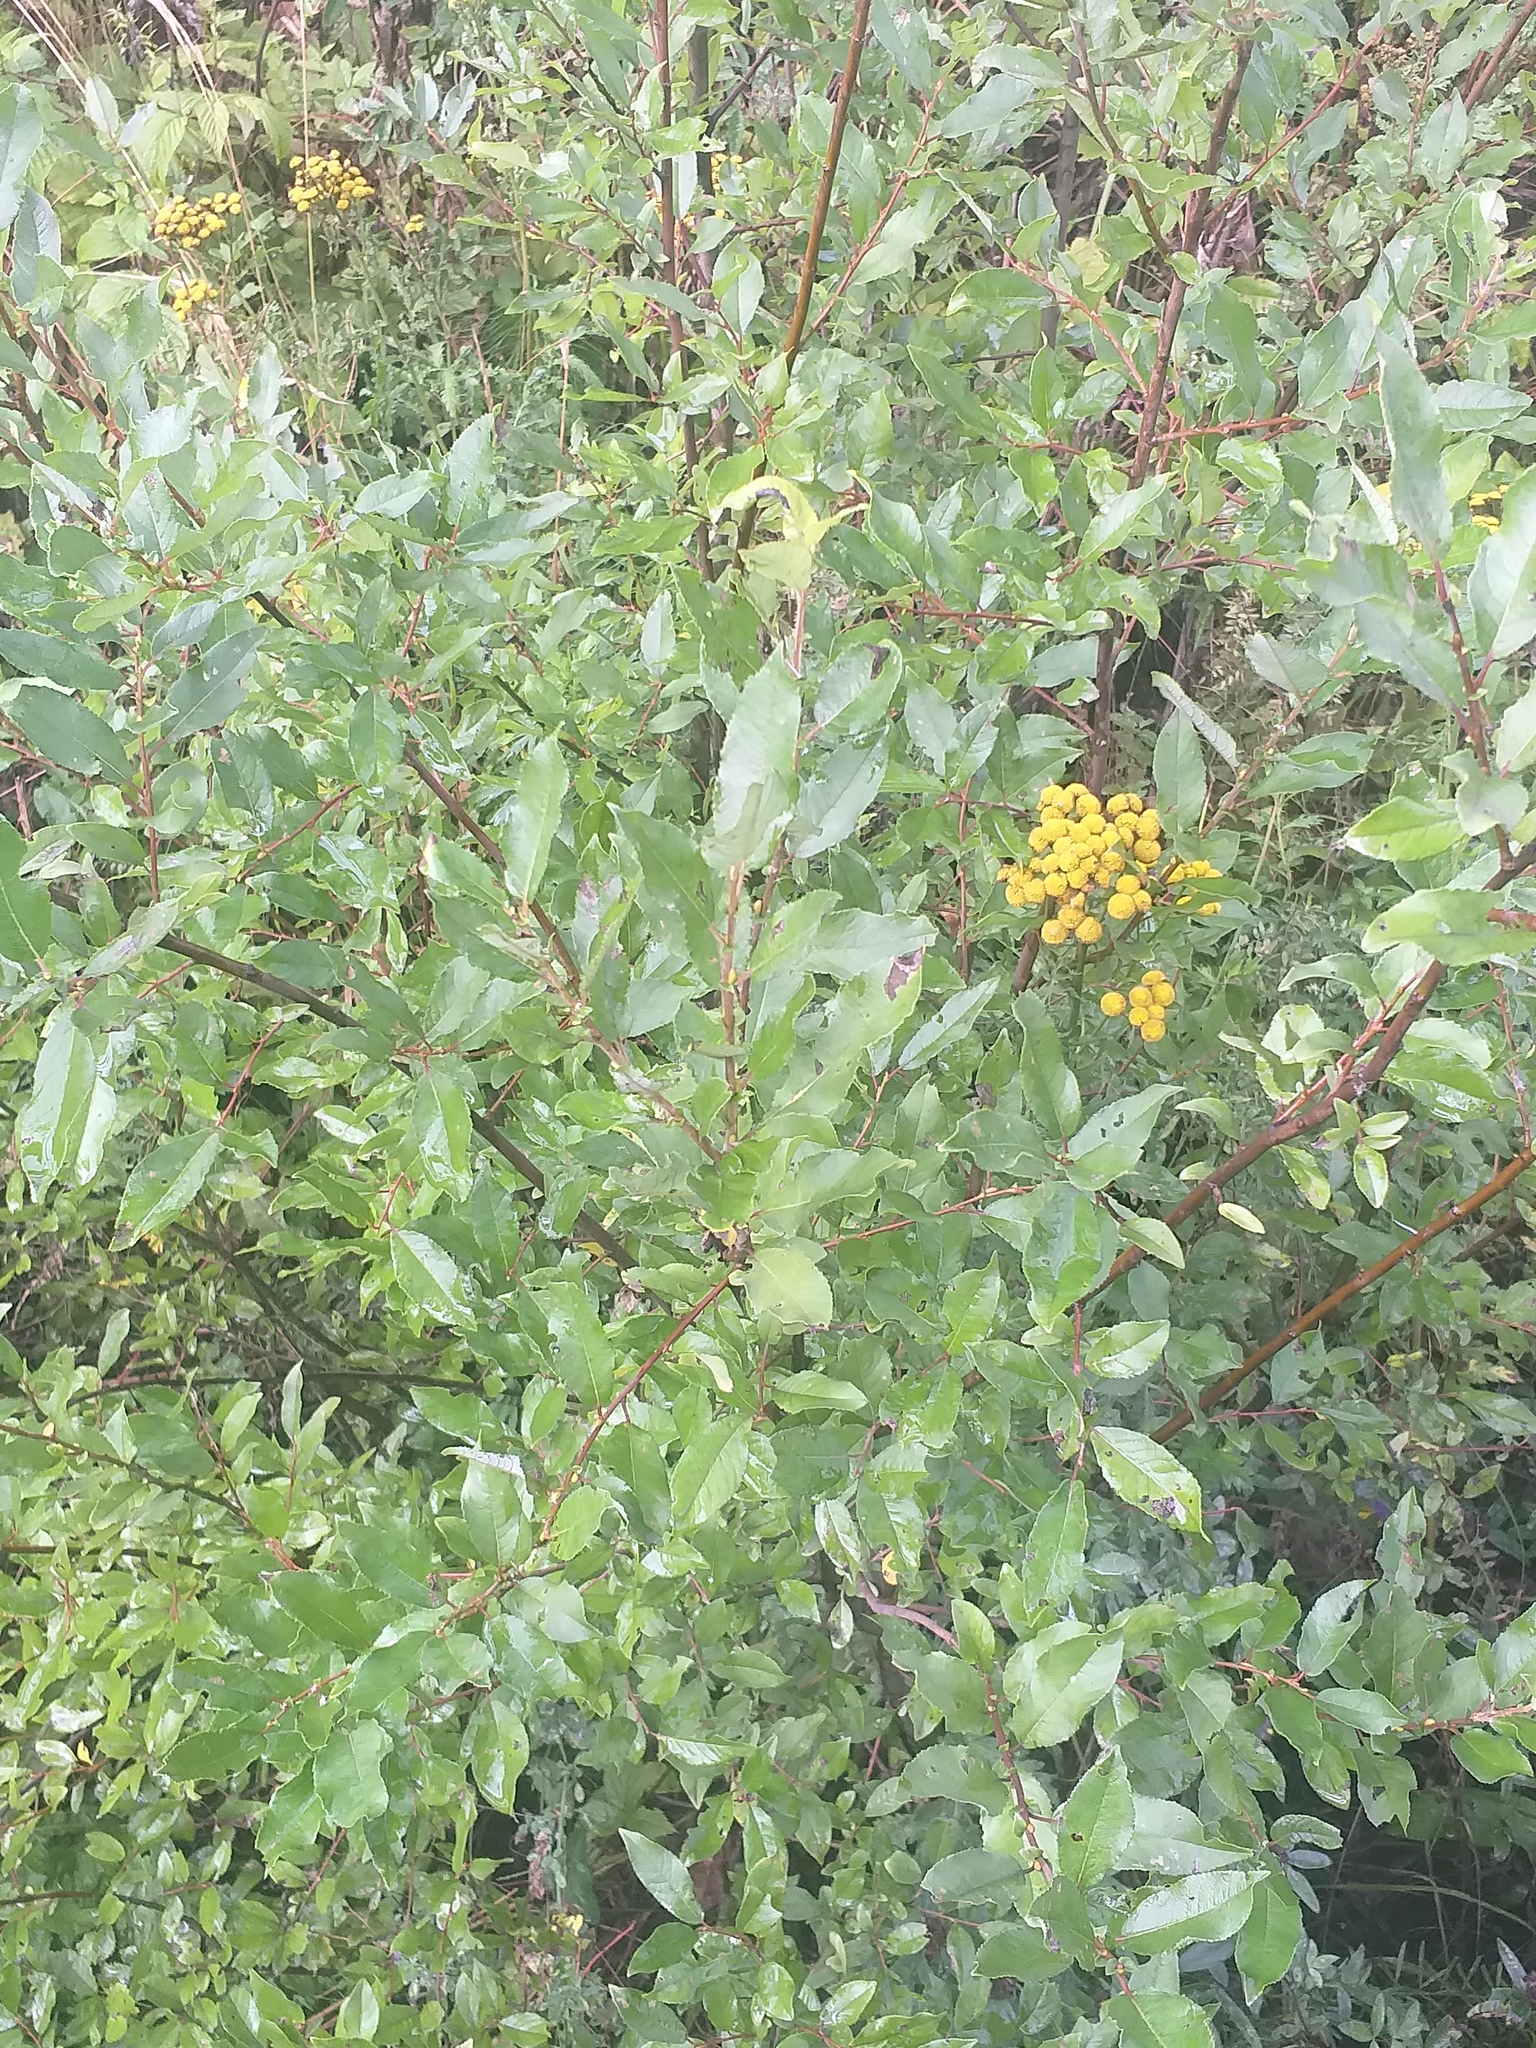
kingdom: Plantae
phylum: Tracheophyta
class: Magnoliopsida
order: Malpighiales
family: Salicaceae
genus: Salix
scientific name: Salix myrsinifolia
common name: Dark-leaved willow
